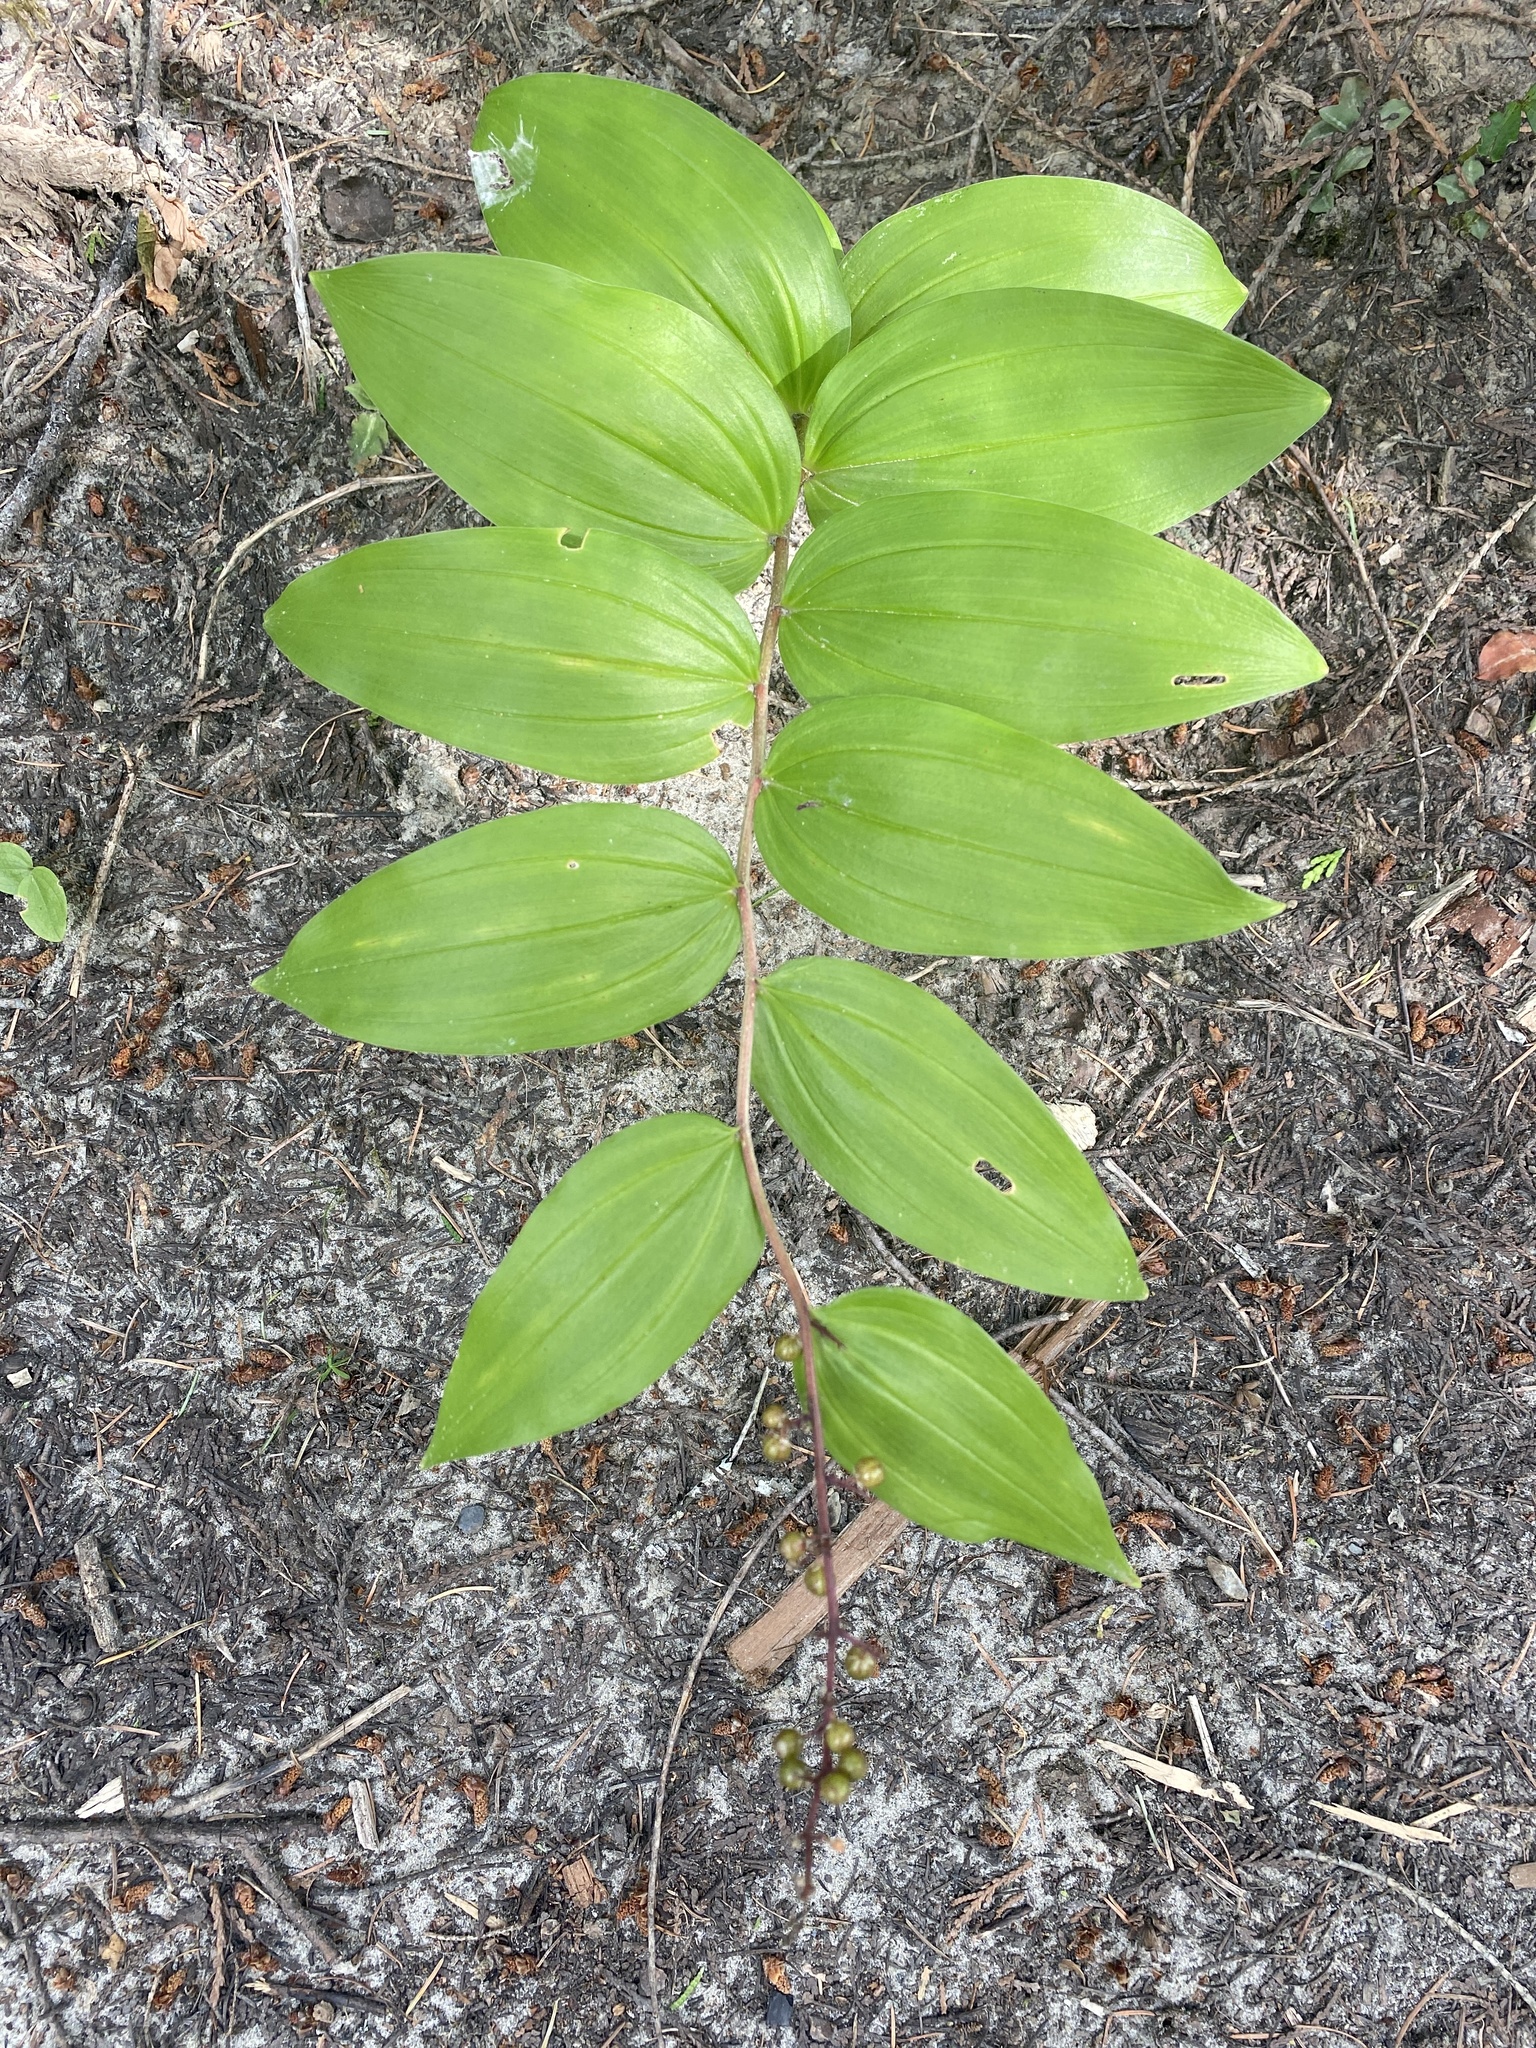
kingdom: Plantae
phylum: Tracheophyta
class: Liliopsida
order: Asparagales
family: Asparagaceae
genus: Maianthemum
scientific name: Maianthemum racemosum
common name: False spikenard
